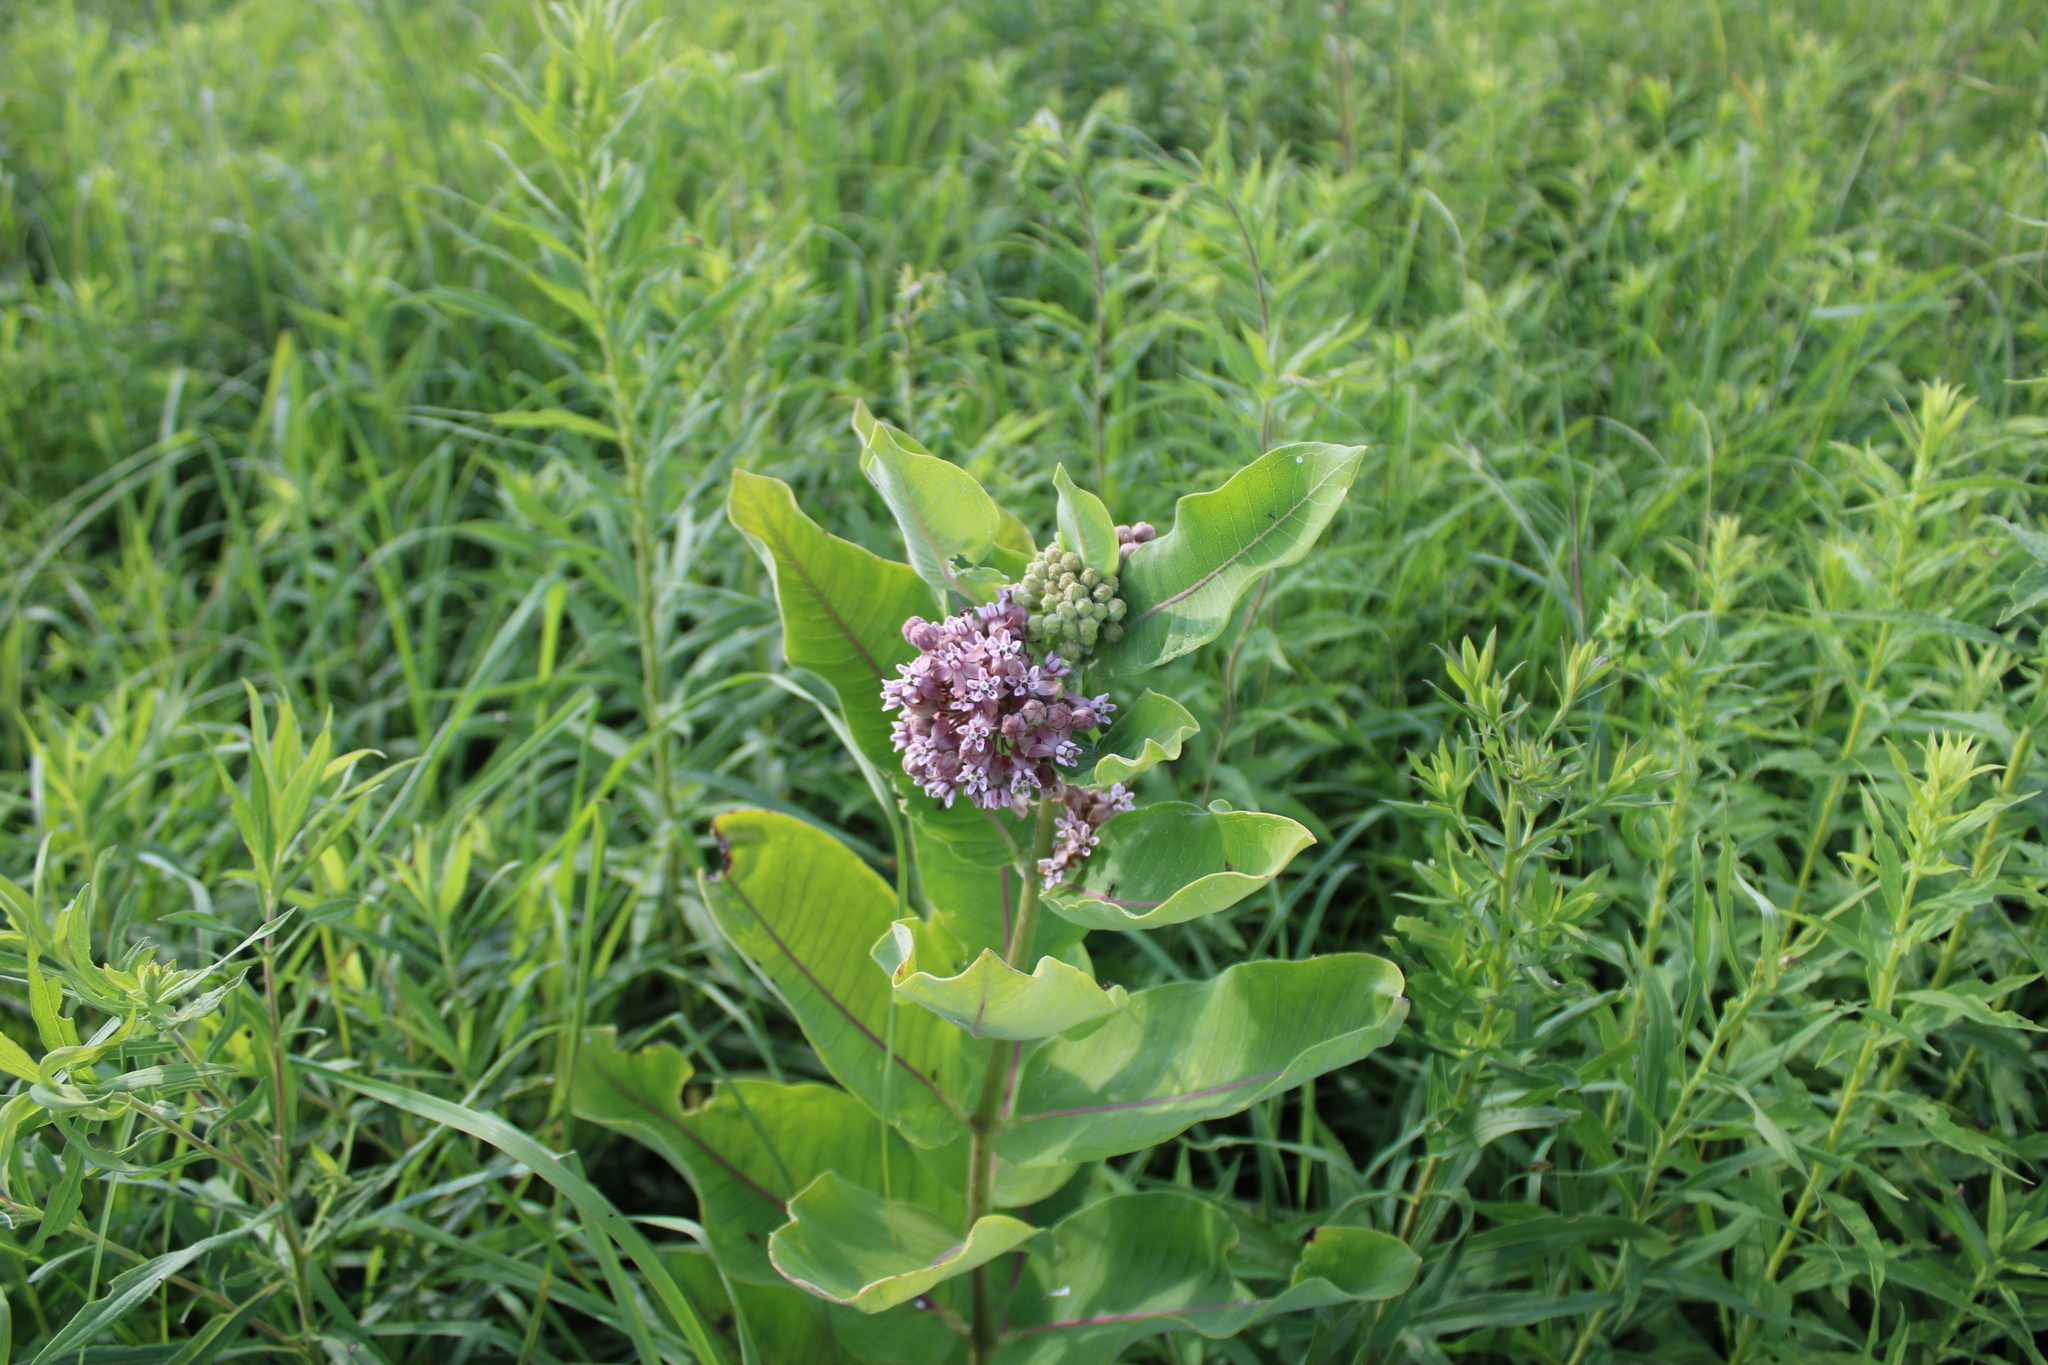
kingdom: Plantae
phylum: Tracheophyta
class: Magnoliopsida
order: Gentianales
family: Apocynaceae
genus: Asclepias
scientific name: Asclepias syriaca
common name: Common milkweed
